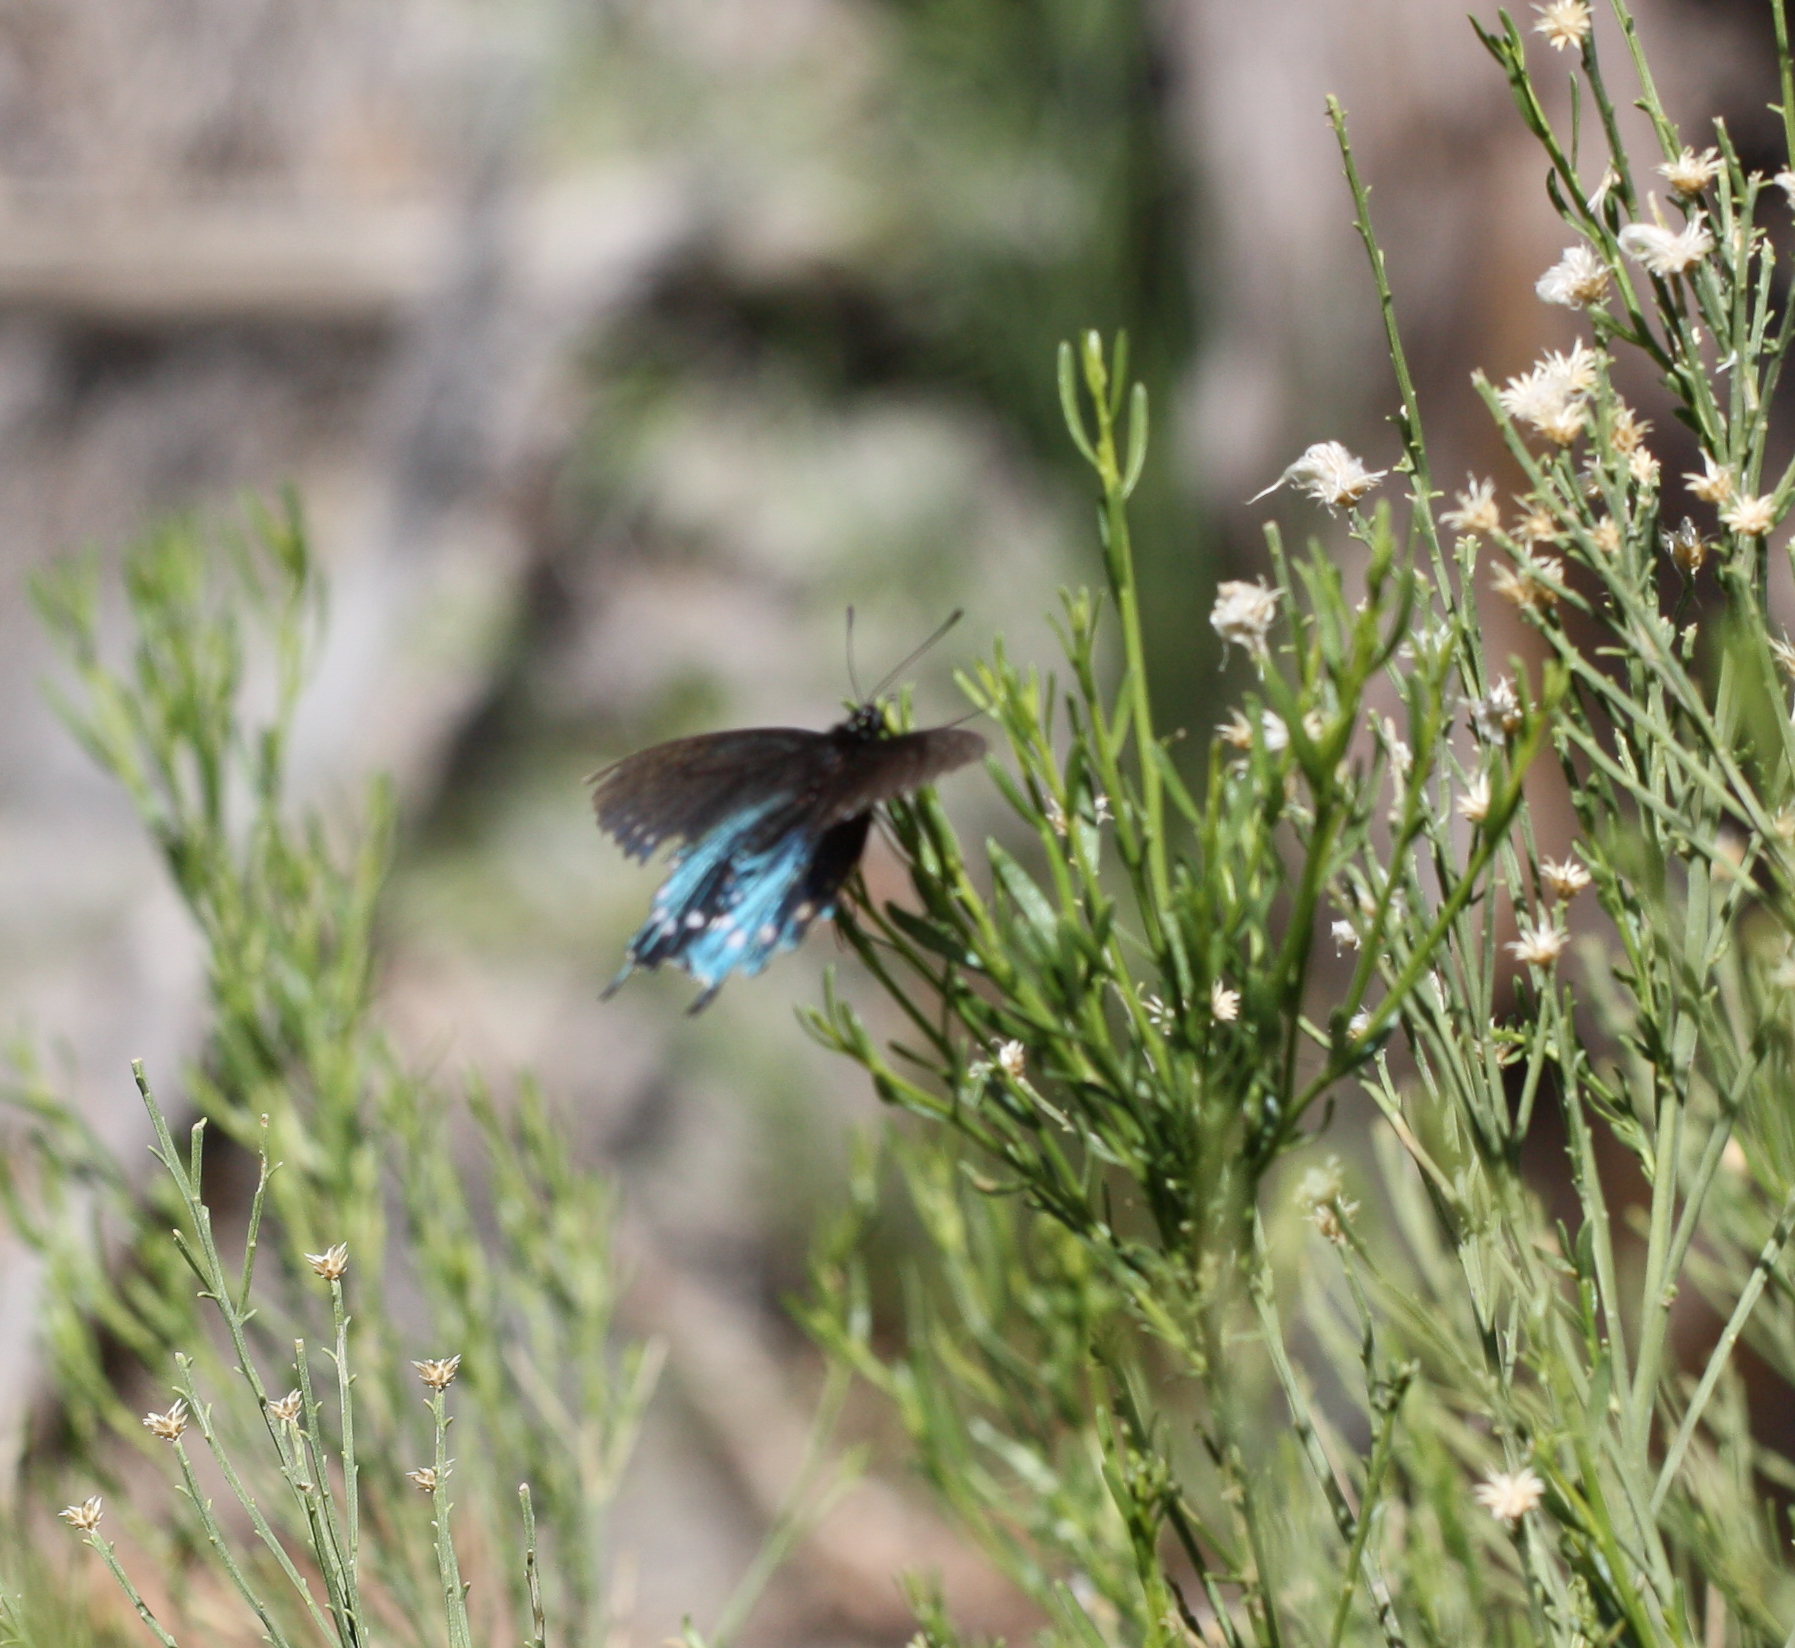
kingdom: Animalia
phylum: Arthropoda
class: Insecta
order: Lepidoptera
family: Papilionidae
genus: Battus
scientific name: Battus philenor
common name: Pipevine swallowtail
